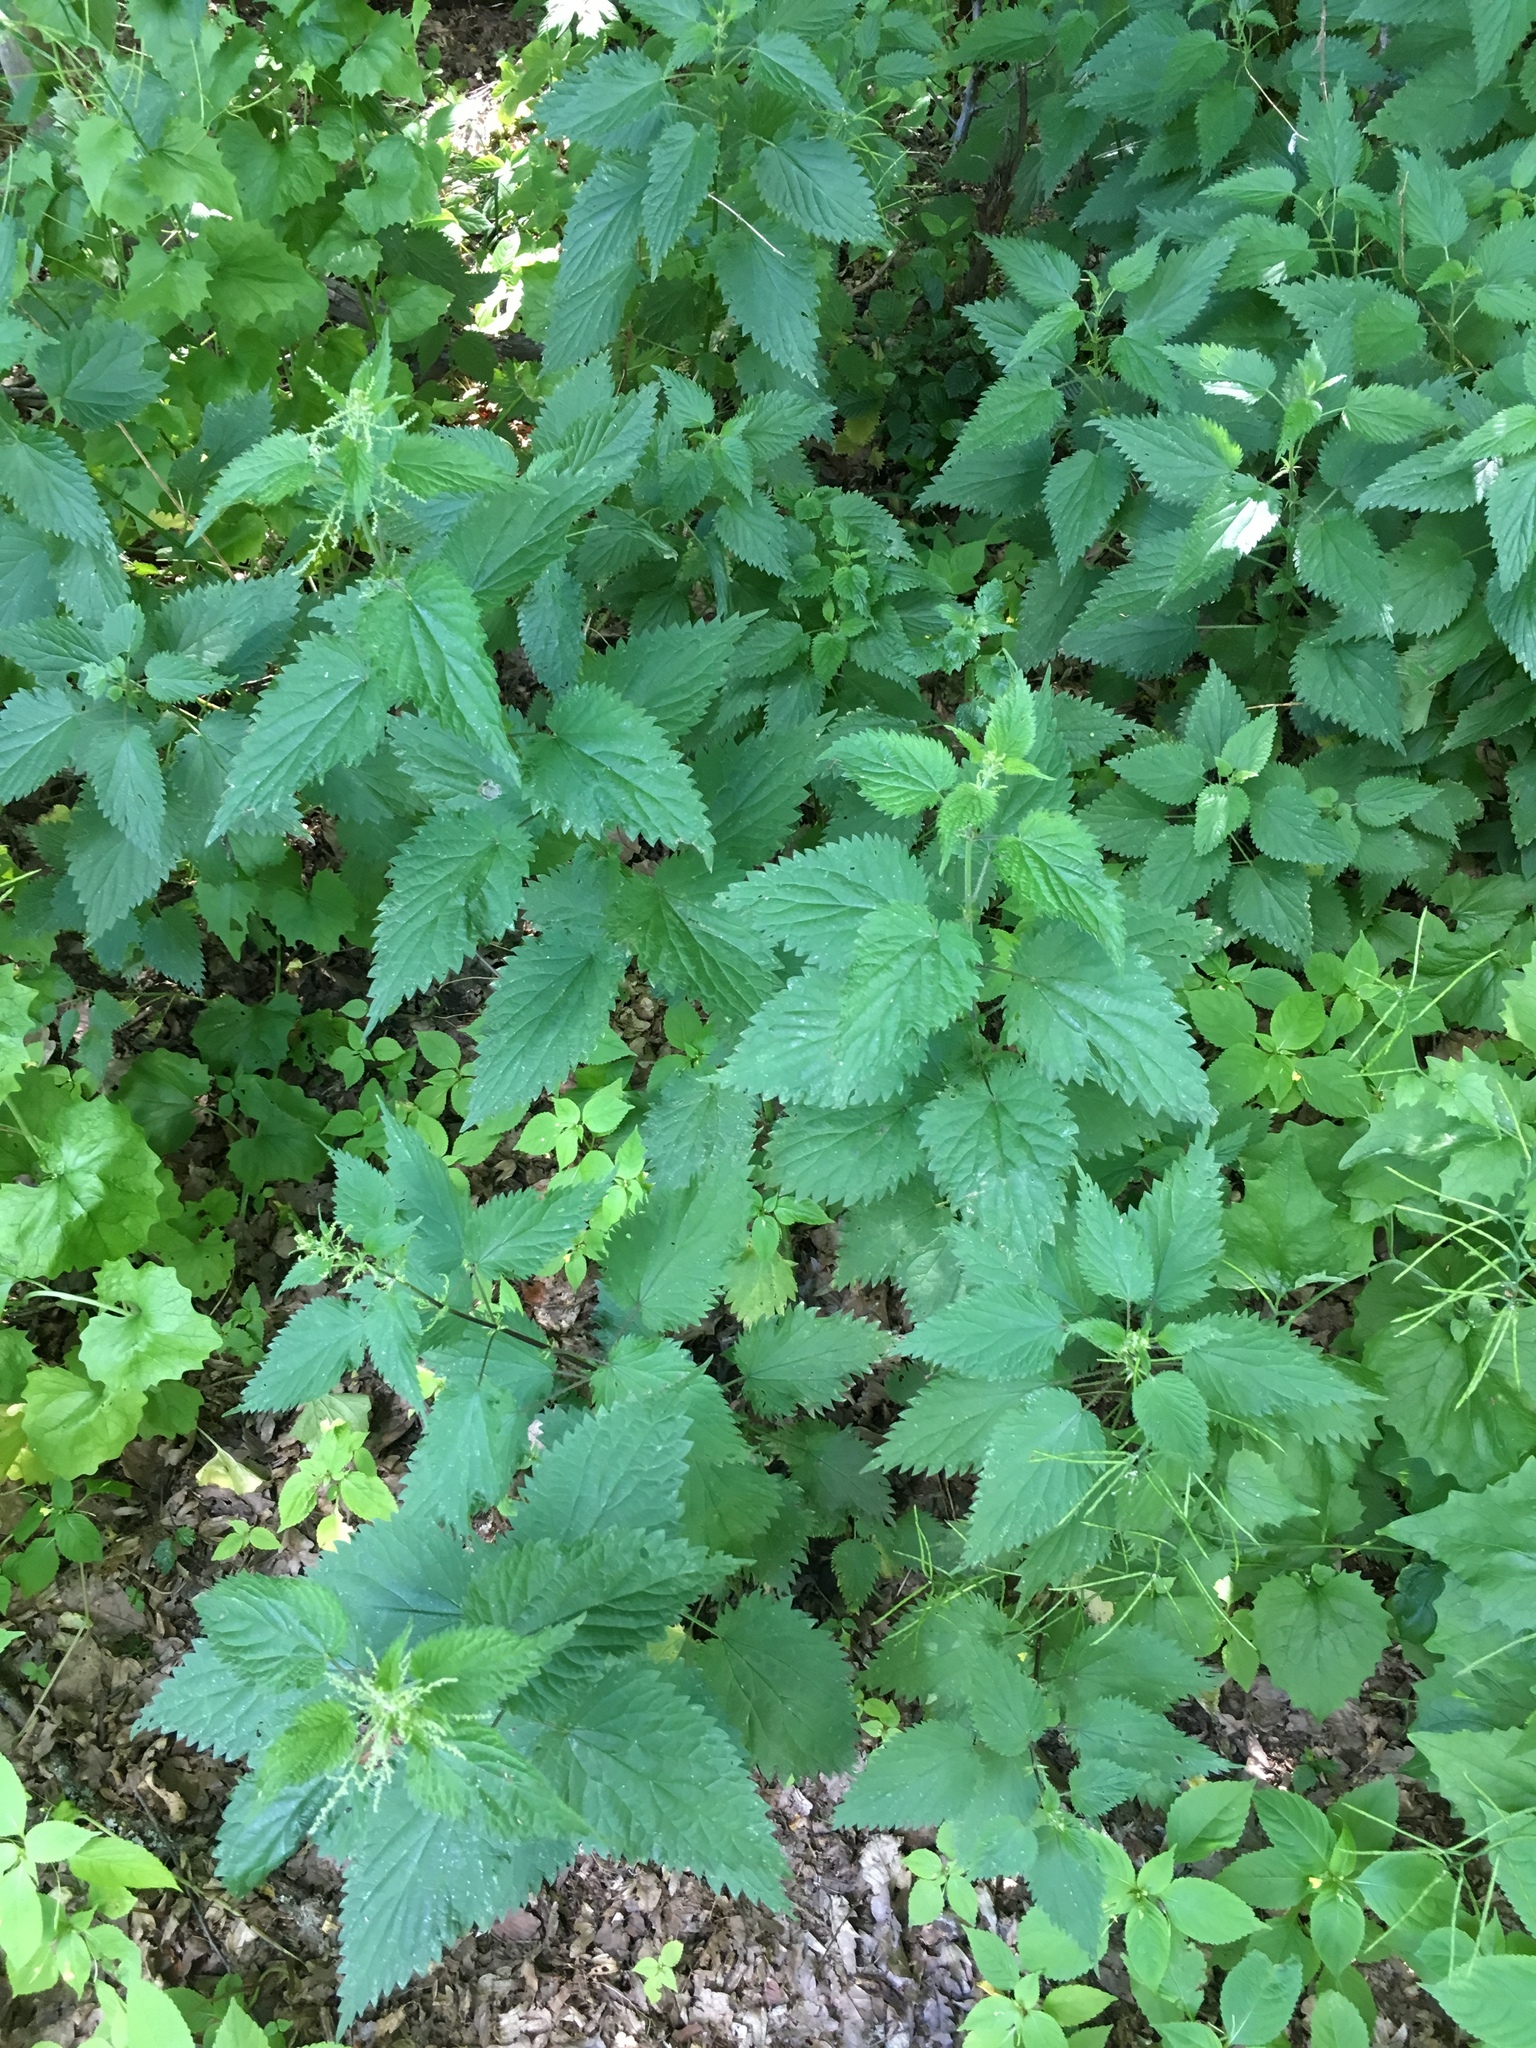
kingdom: Plantae
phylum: Tracheophyta
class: Magnoliopsida
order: Rosales
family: Urticaceae
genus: Urtica
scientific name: Urtica dioica
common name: Common nettle
